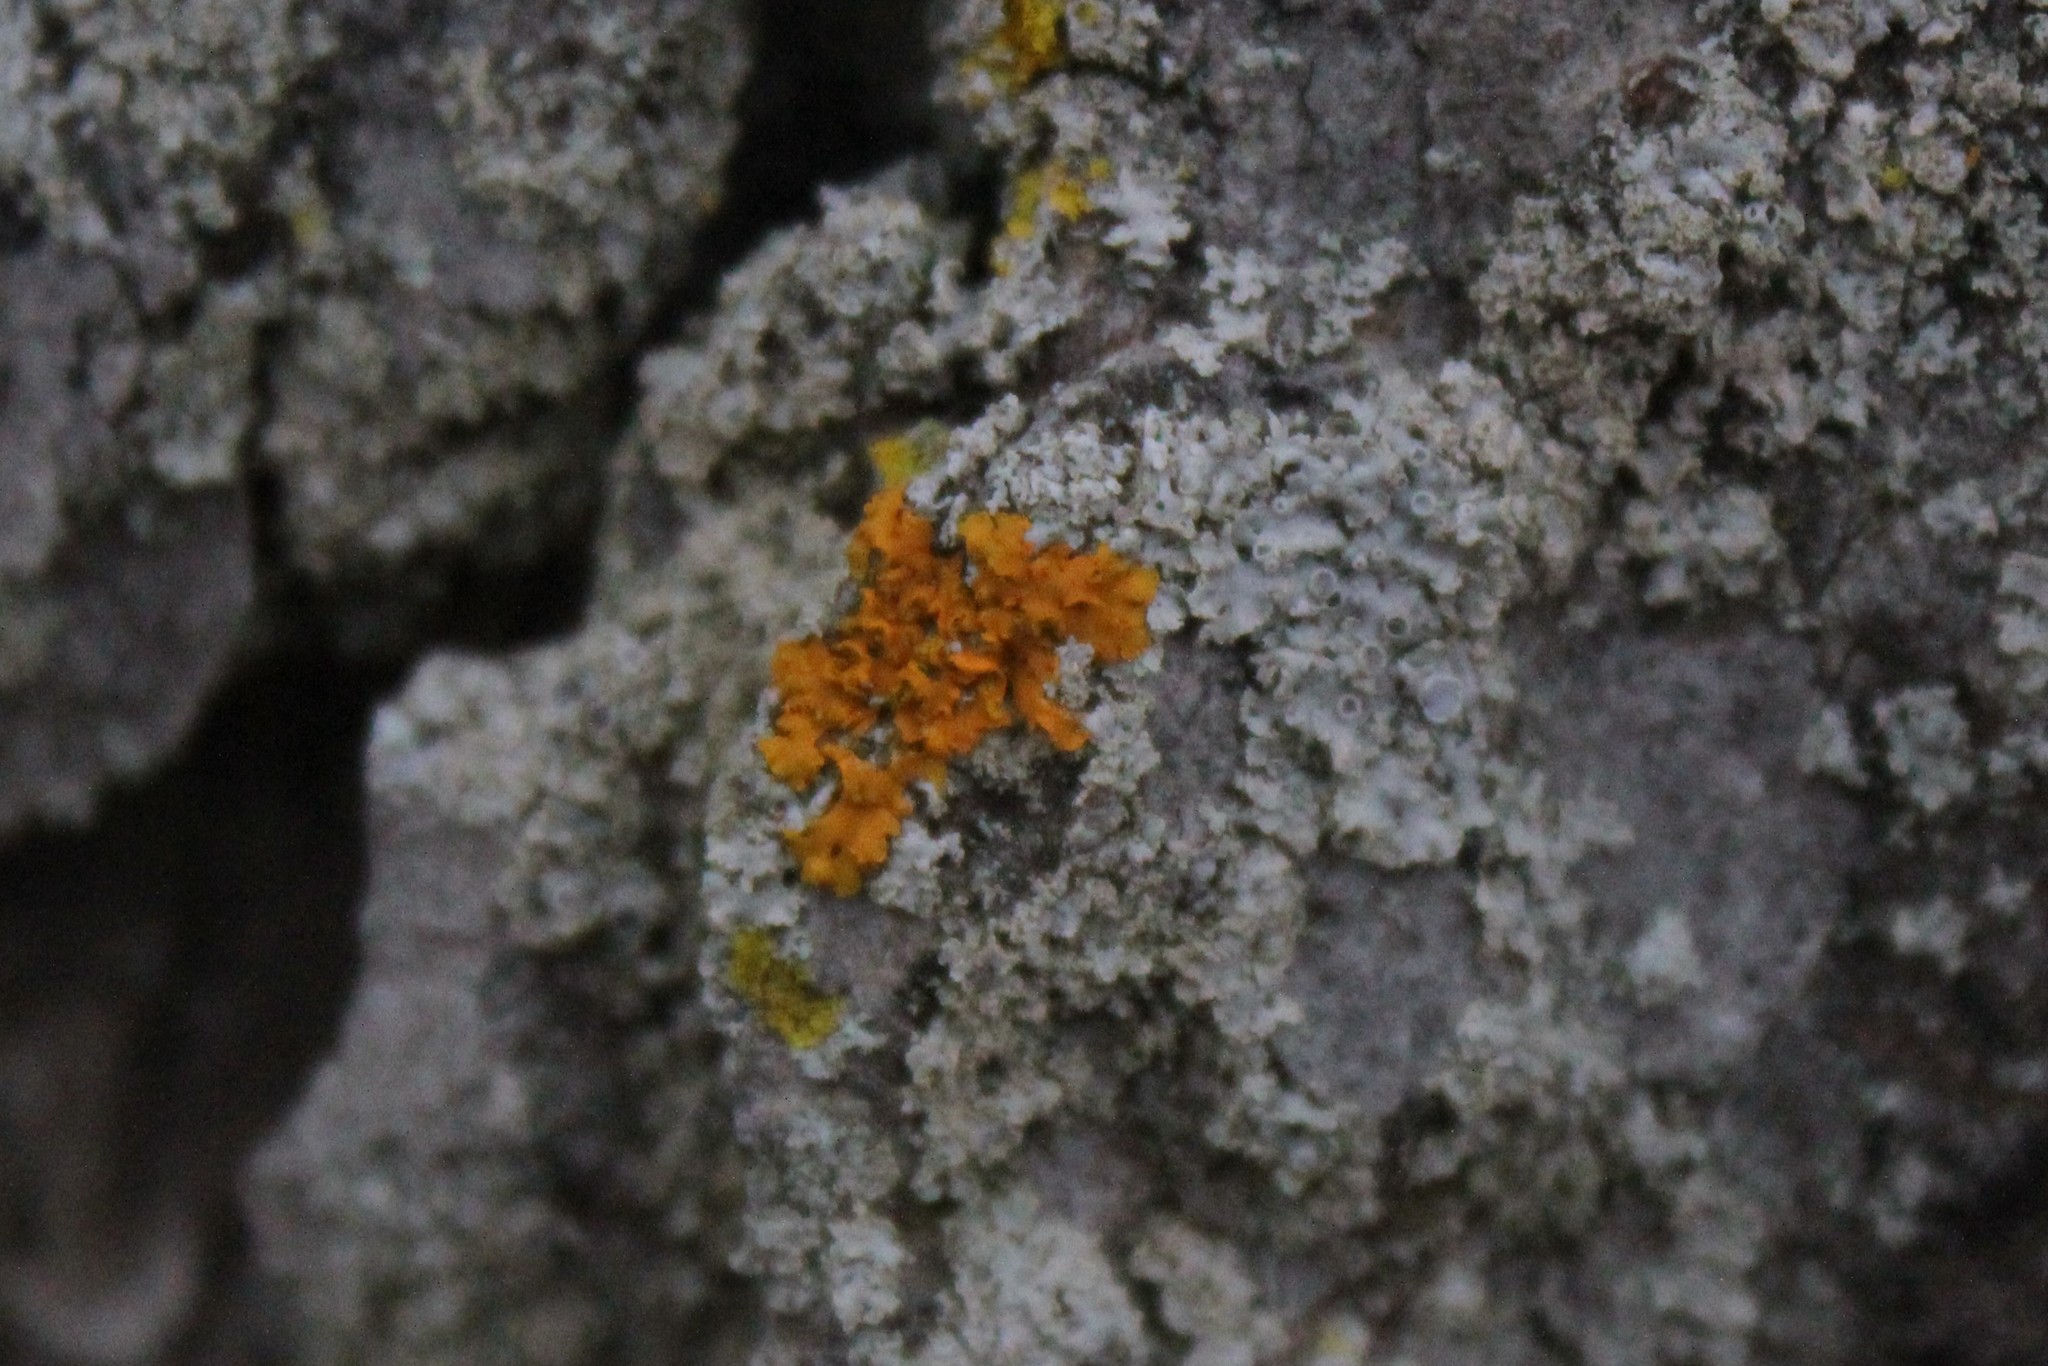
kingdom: Fungi
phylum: Ascomycota
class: Lecanoromycetes
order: Teloschistales
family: Teloschistaceae
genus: Oxneria
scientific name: Oxneria fallax
